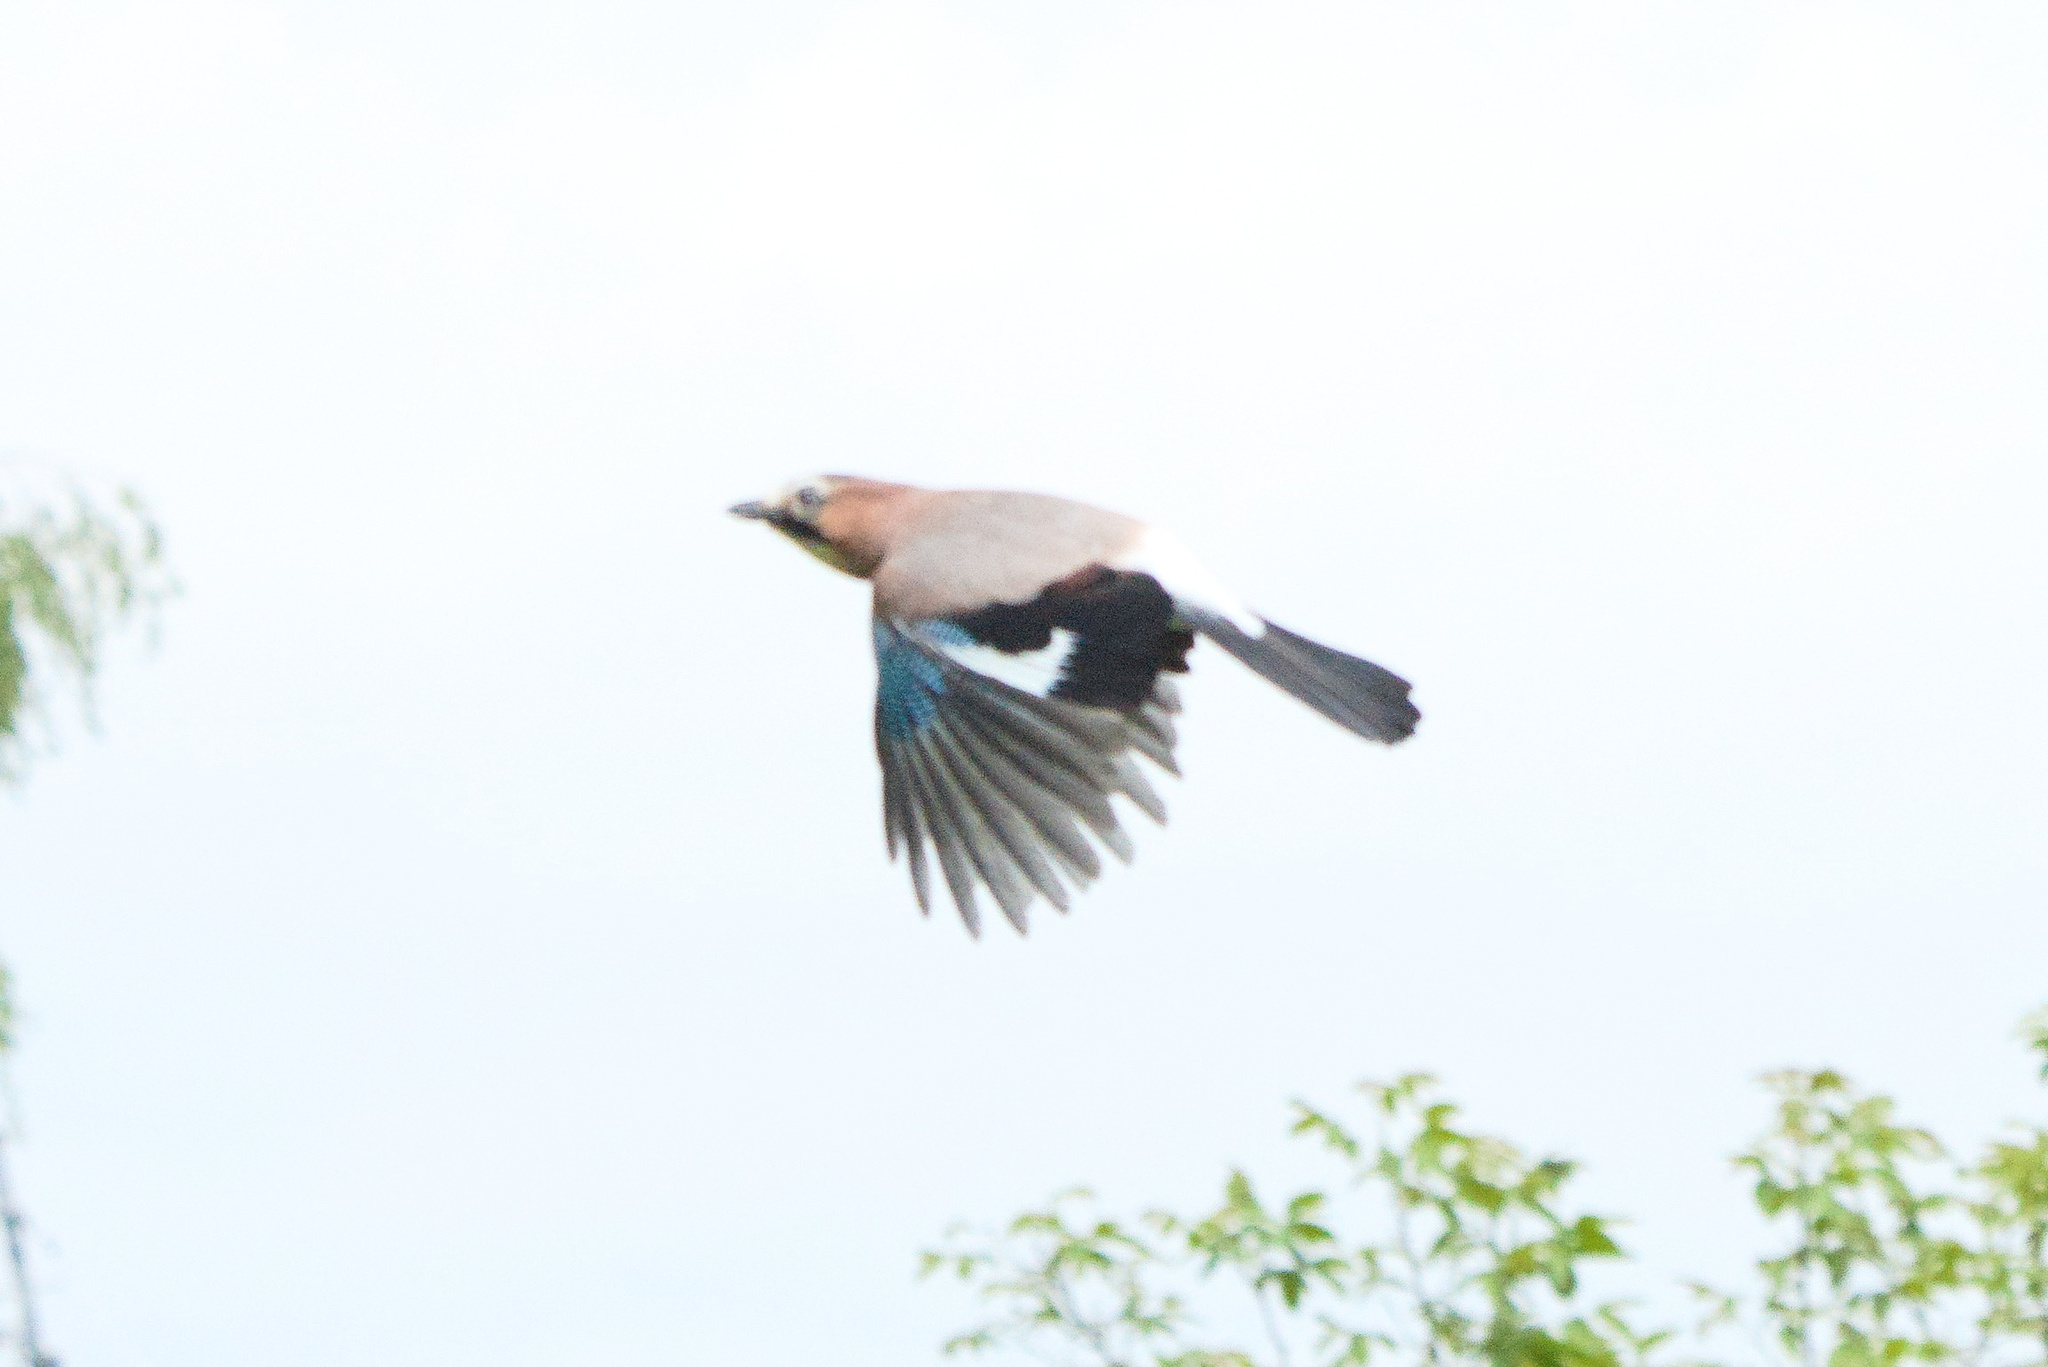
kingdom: Animalia
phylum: Chordata
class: Aves
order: Passeriformes
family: Corvidae
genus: Garrulus
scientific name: Garrulus glandarius
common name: Eurasian jay
